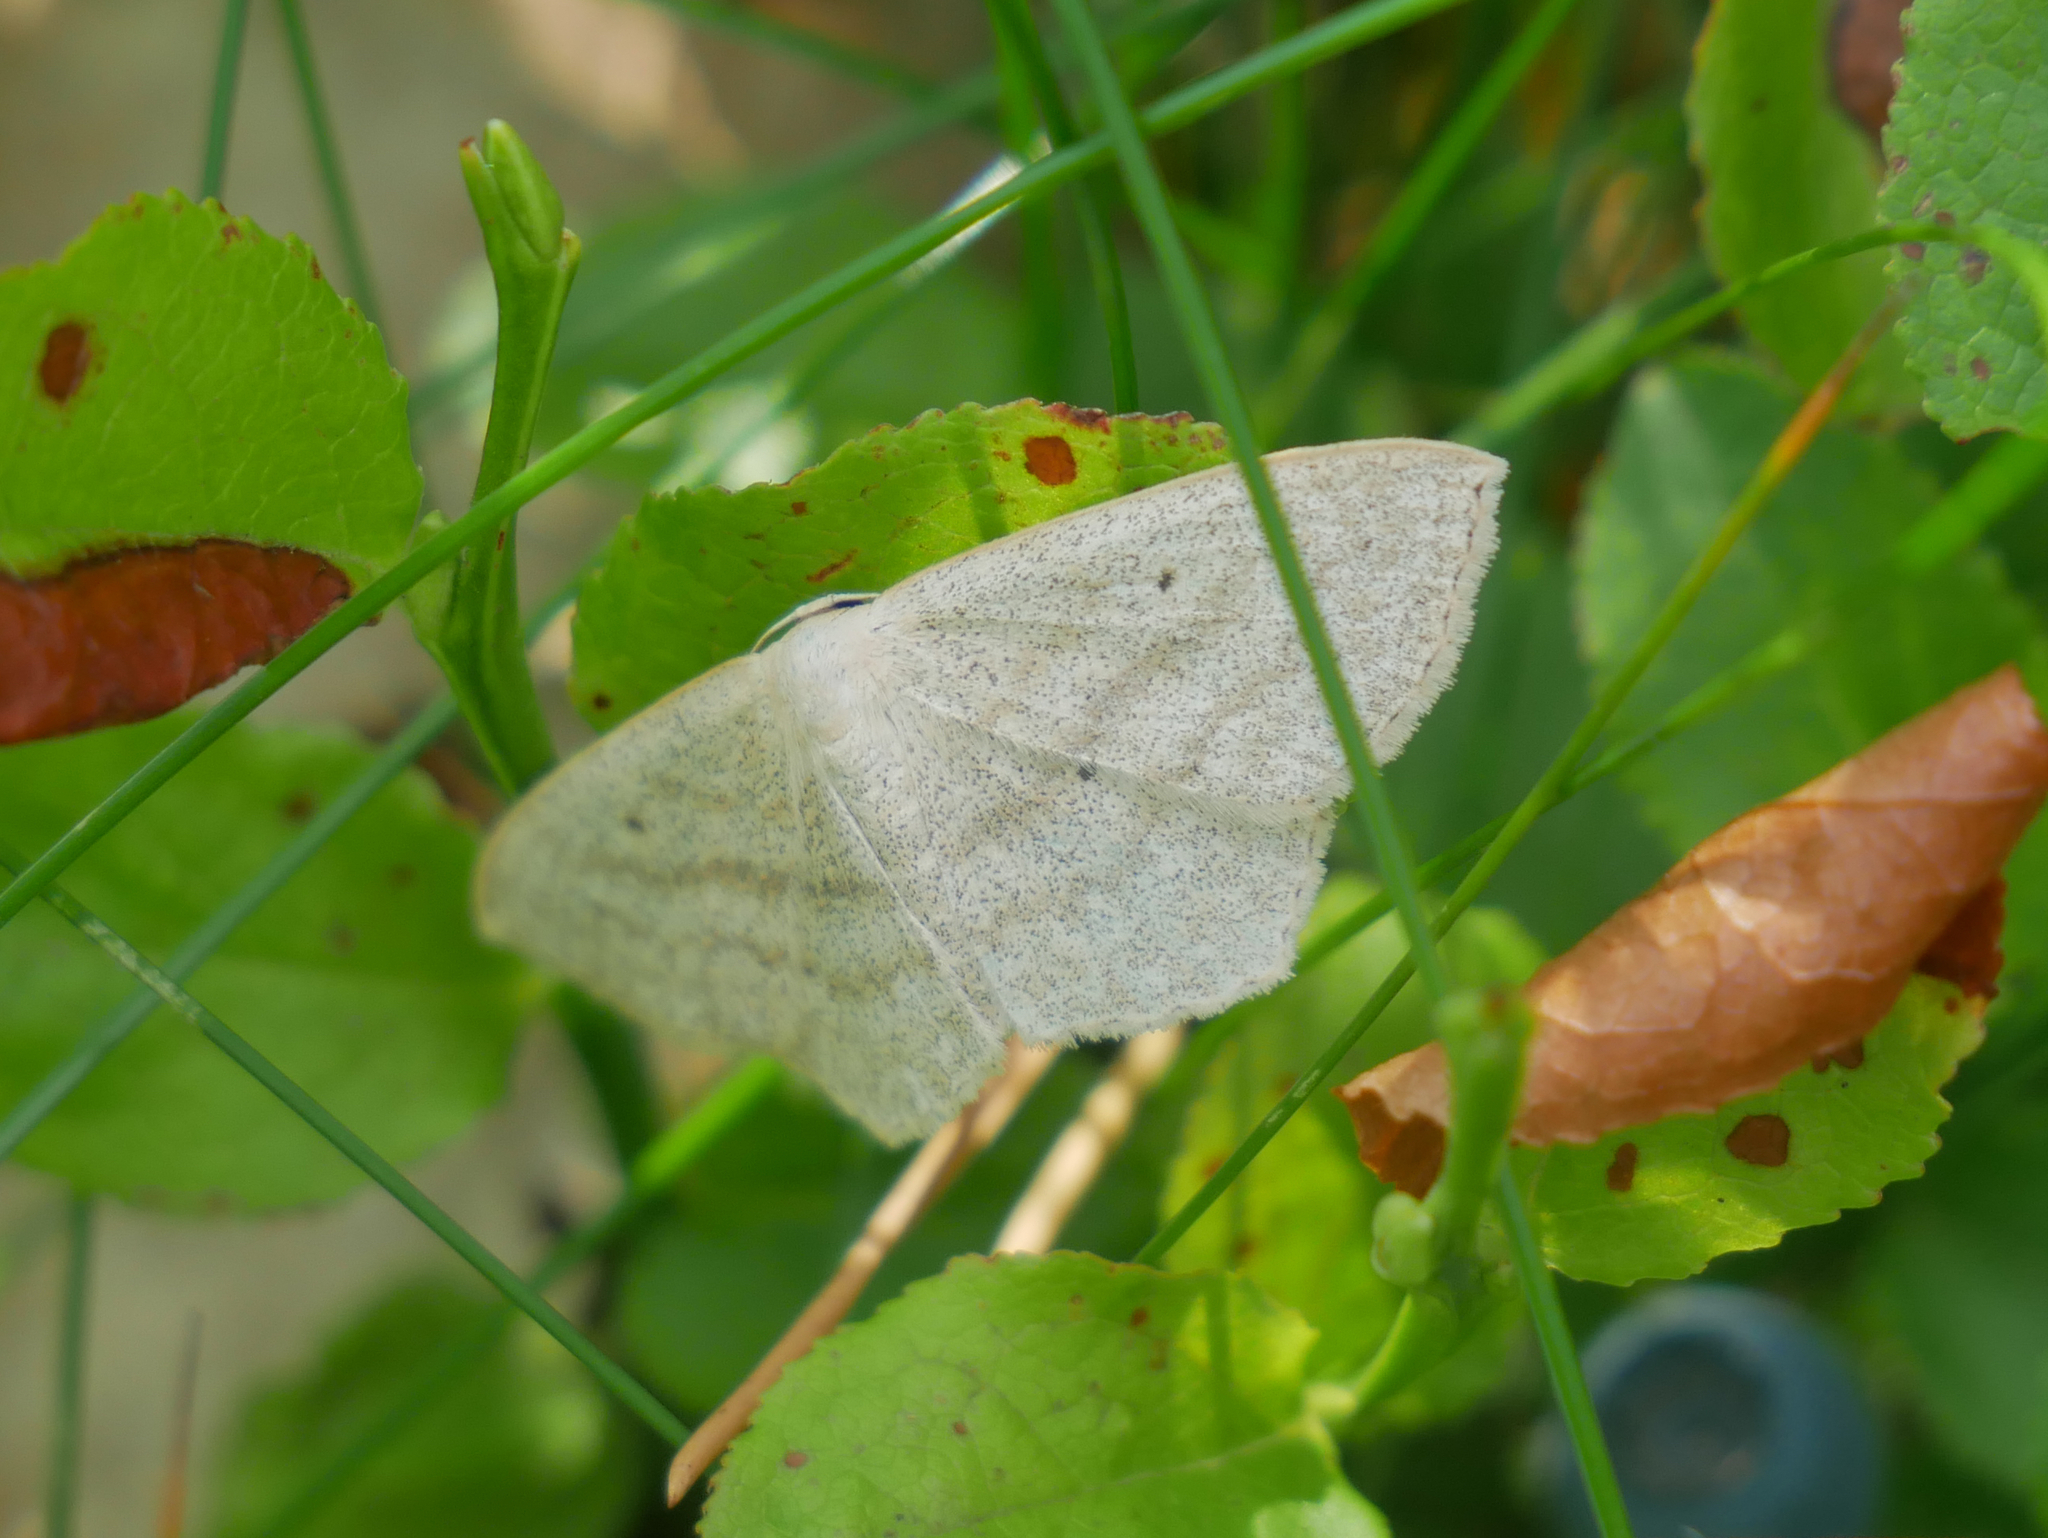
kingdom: Animalia
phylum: Arthropoda
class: Insecta
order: Lepidoptera
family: Geometridae
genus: Scopula
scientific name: Scopula nigropunctata
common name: Sub-angled wave
